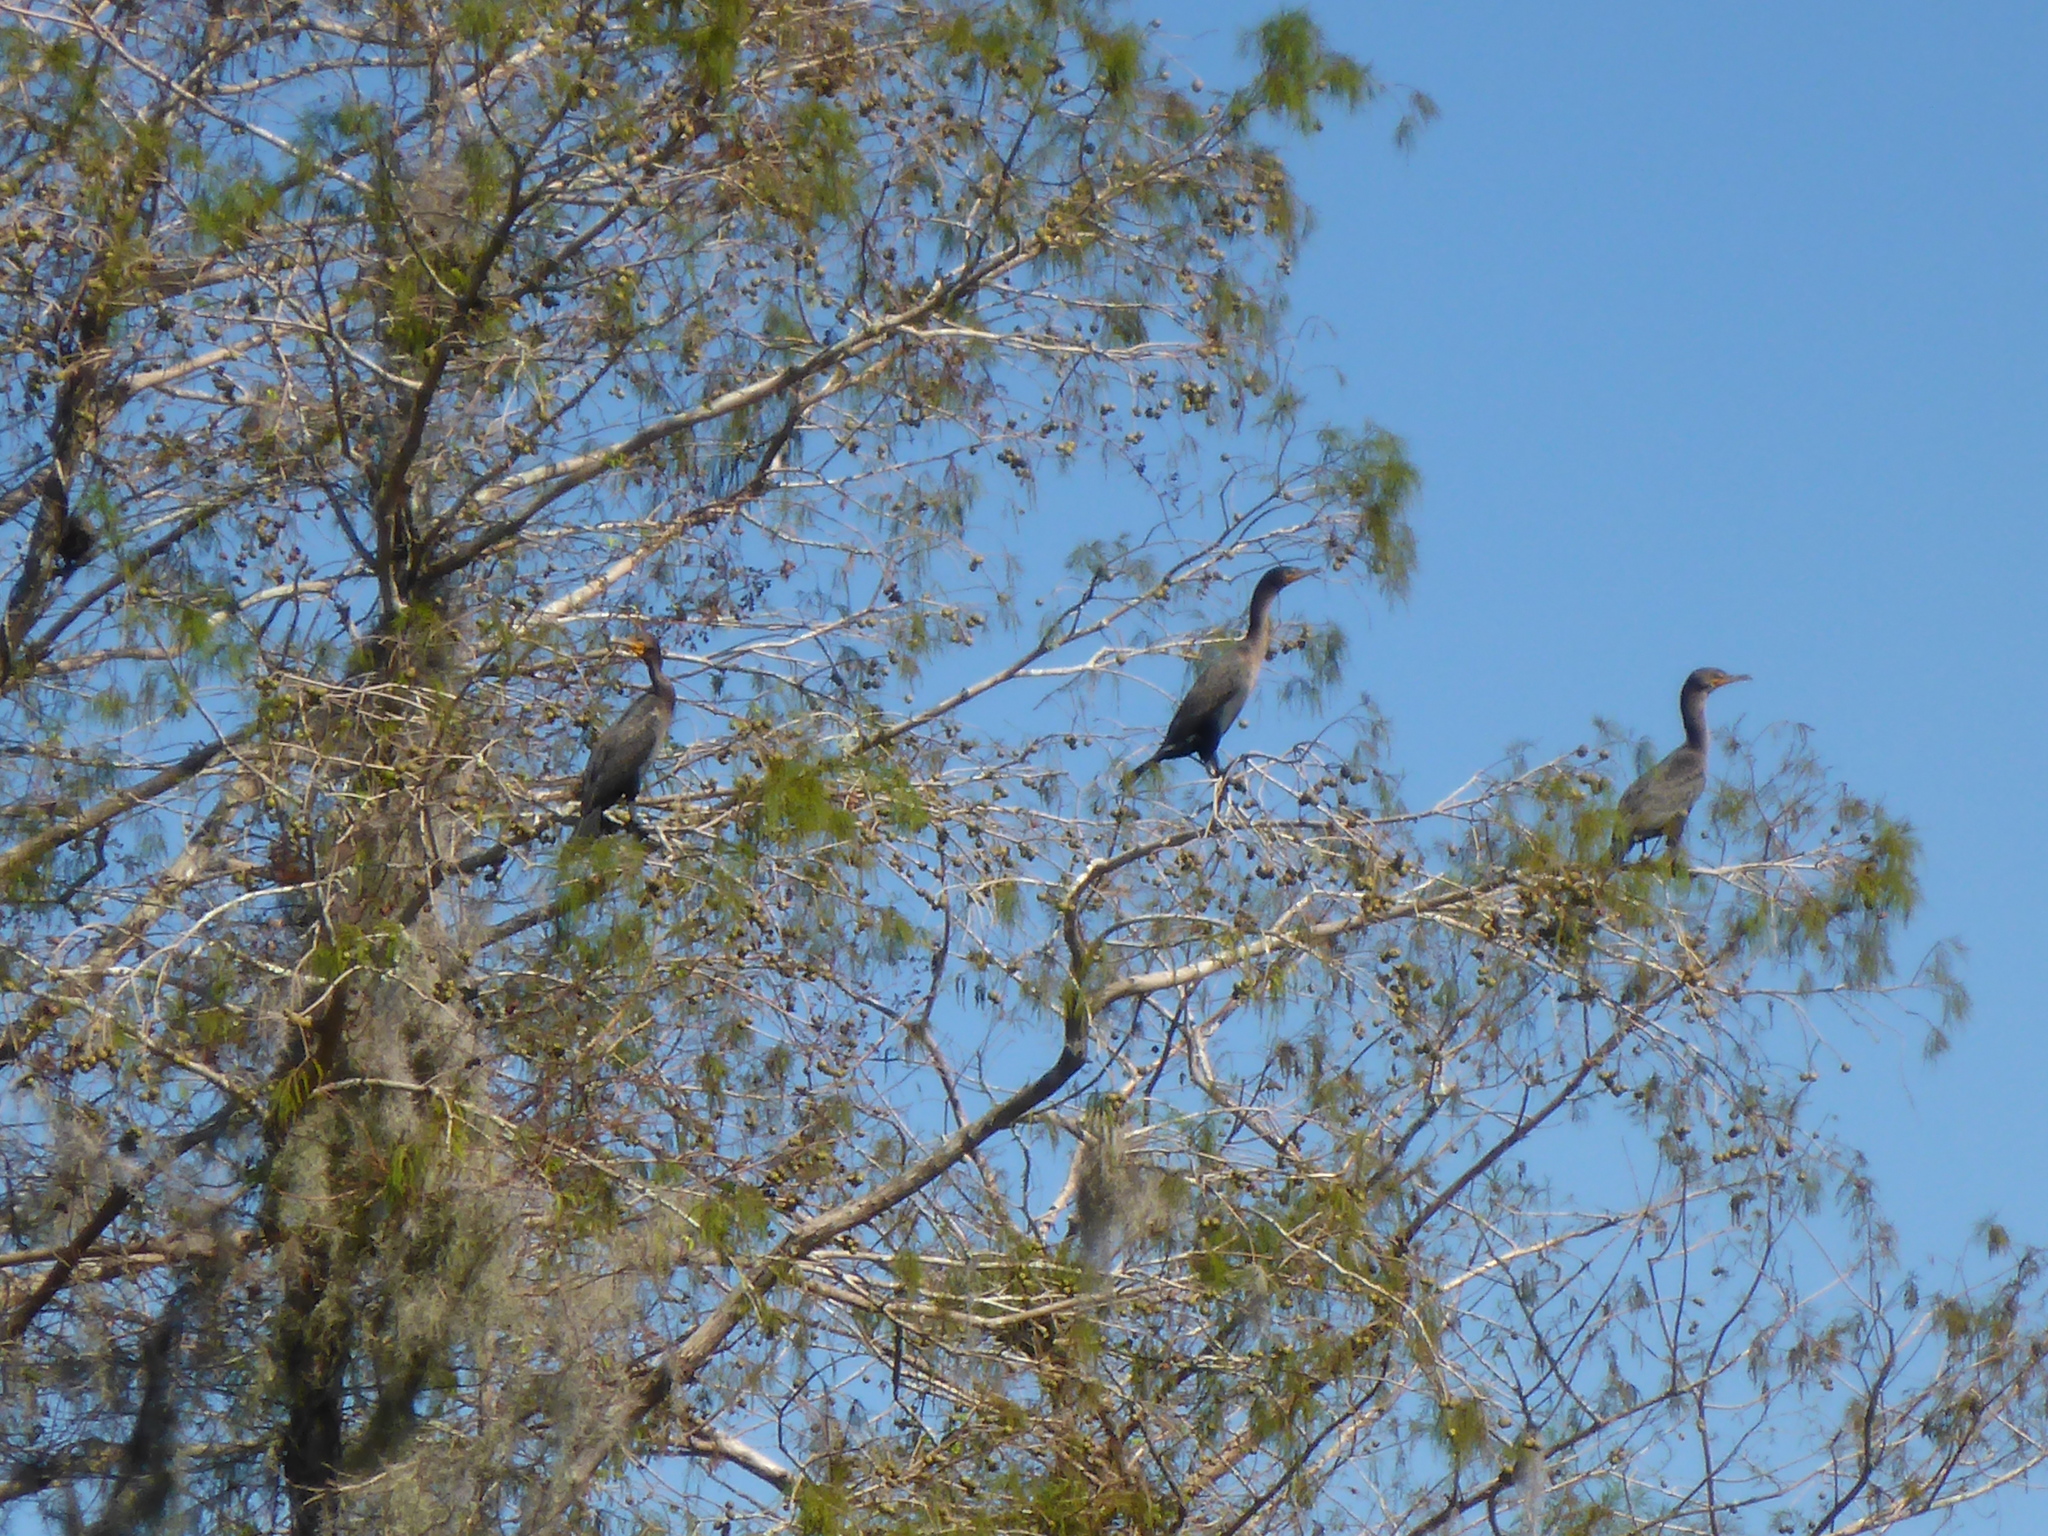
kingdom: Animalia
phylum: Chordata
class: Aves
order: Suliformes
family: Phalacrocoracidae
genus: Phalacrocorax
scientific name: Phalacrocorax auritus
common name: Double-crested cormorant
